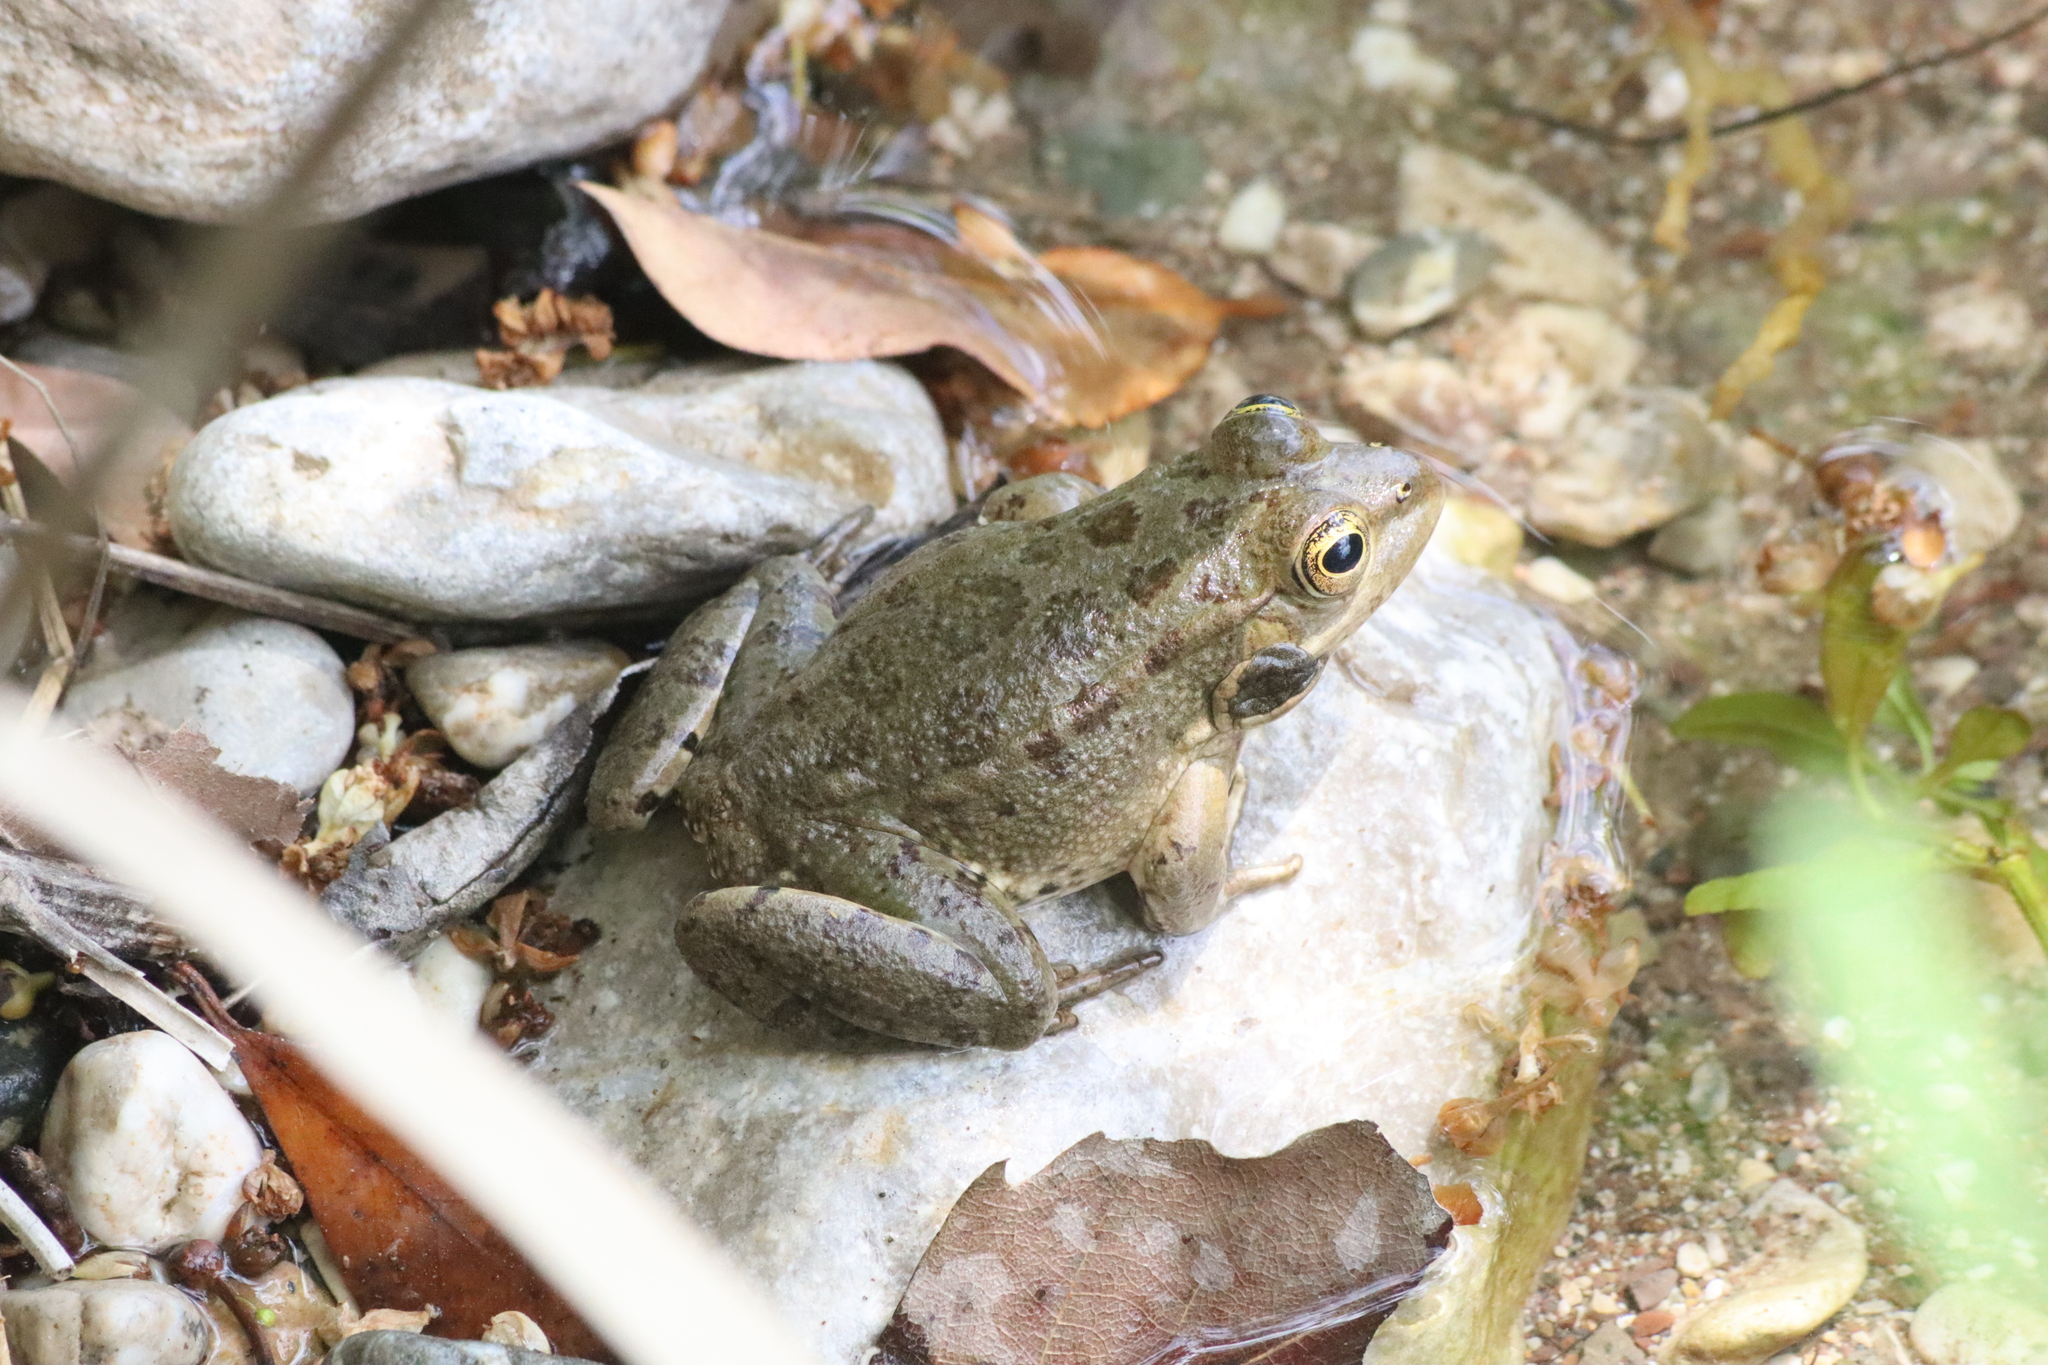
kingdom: Animalia
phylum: Chordata
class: Amphibia
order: Anura
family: Ranidae
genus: Pelophylax
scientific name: Pelophylax ridibundus
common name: Marsh frog
